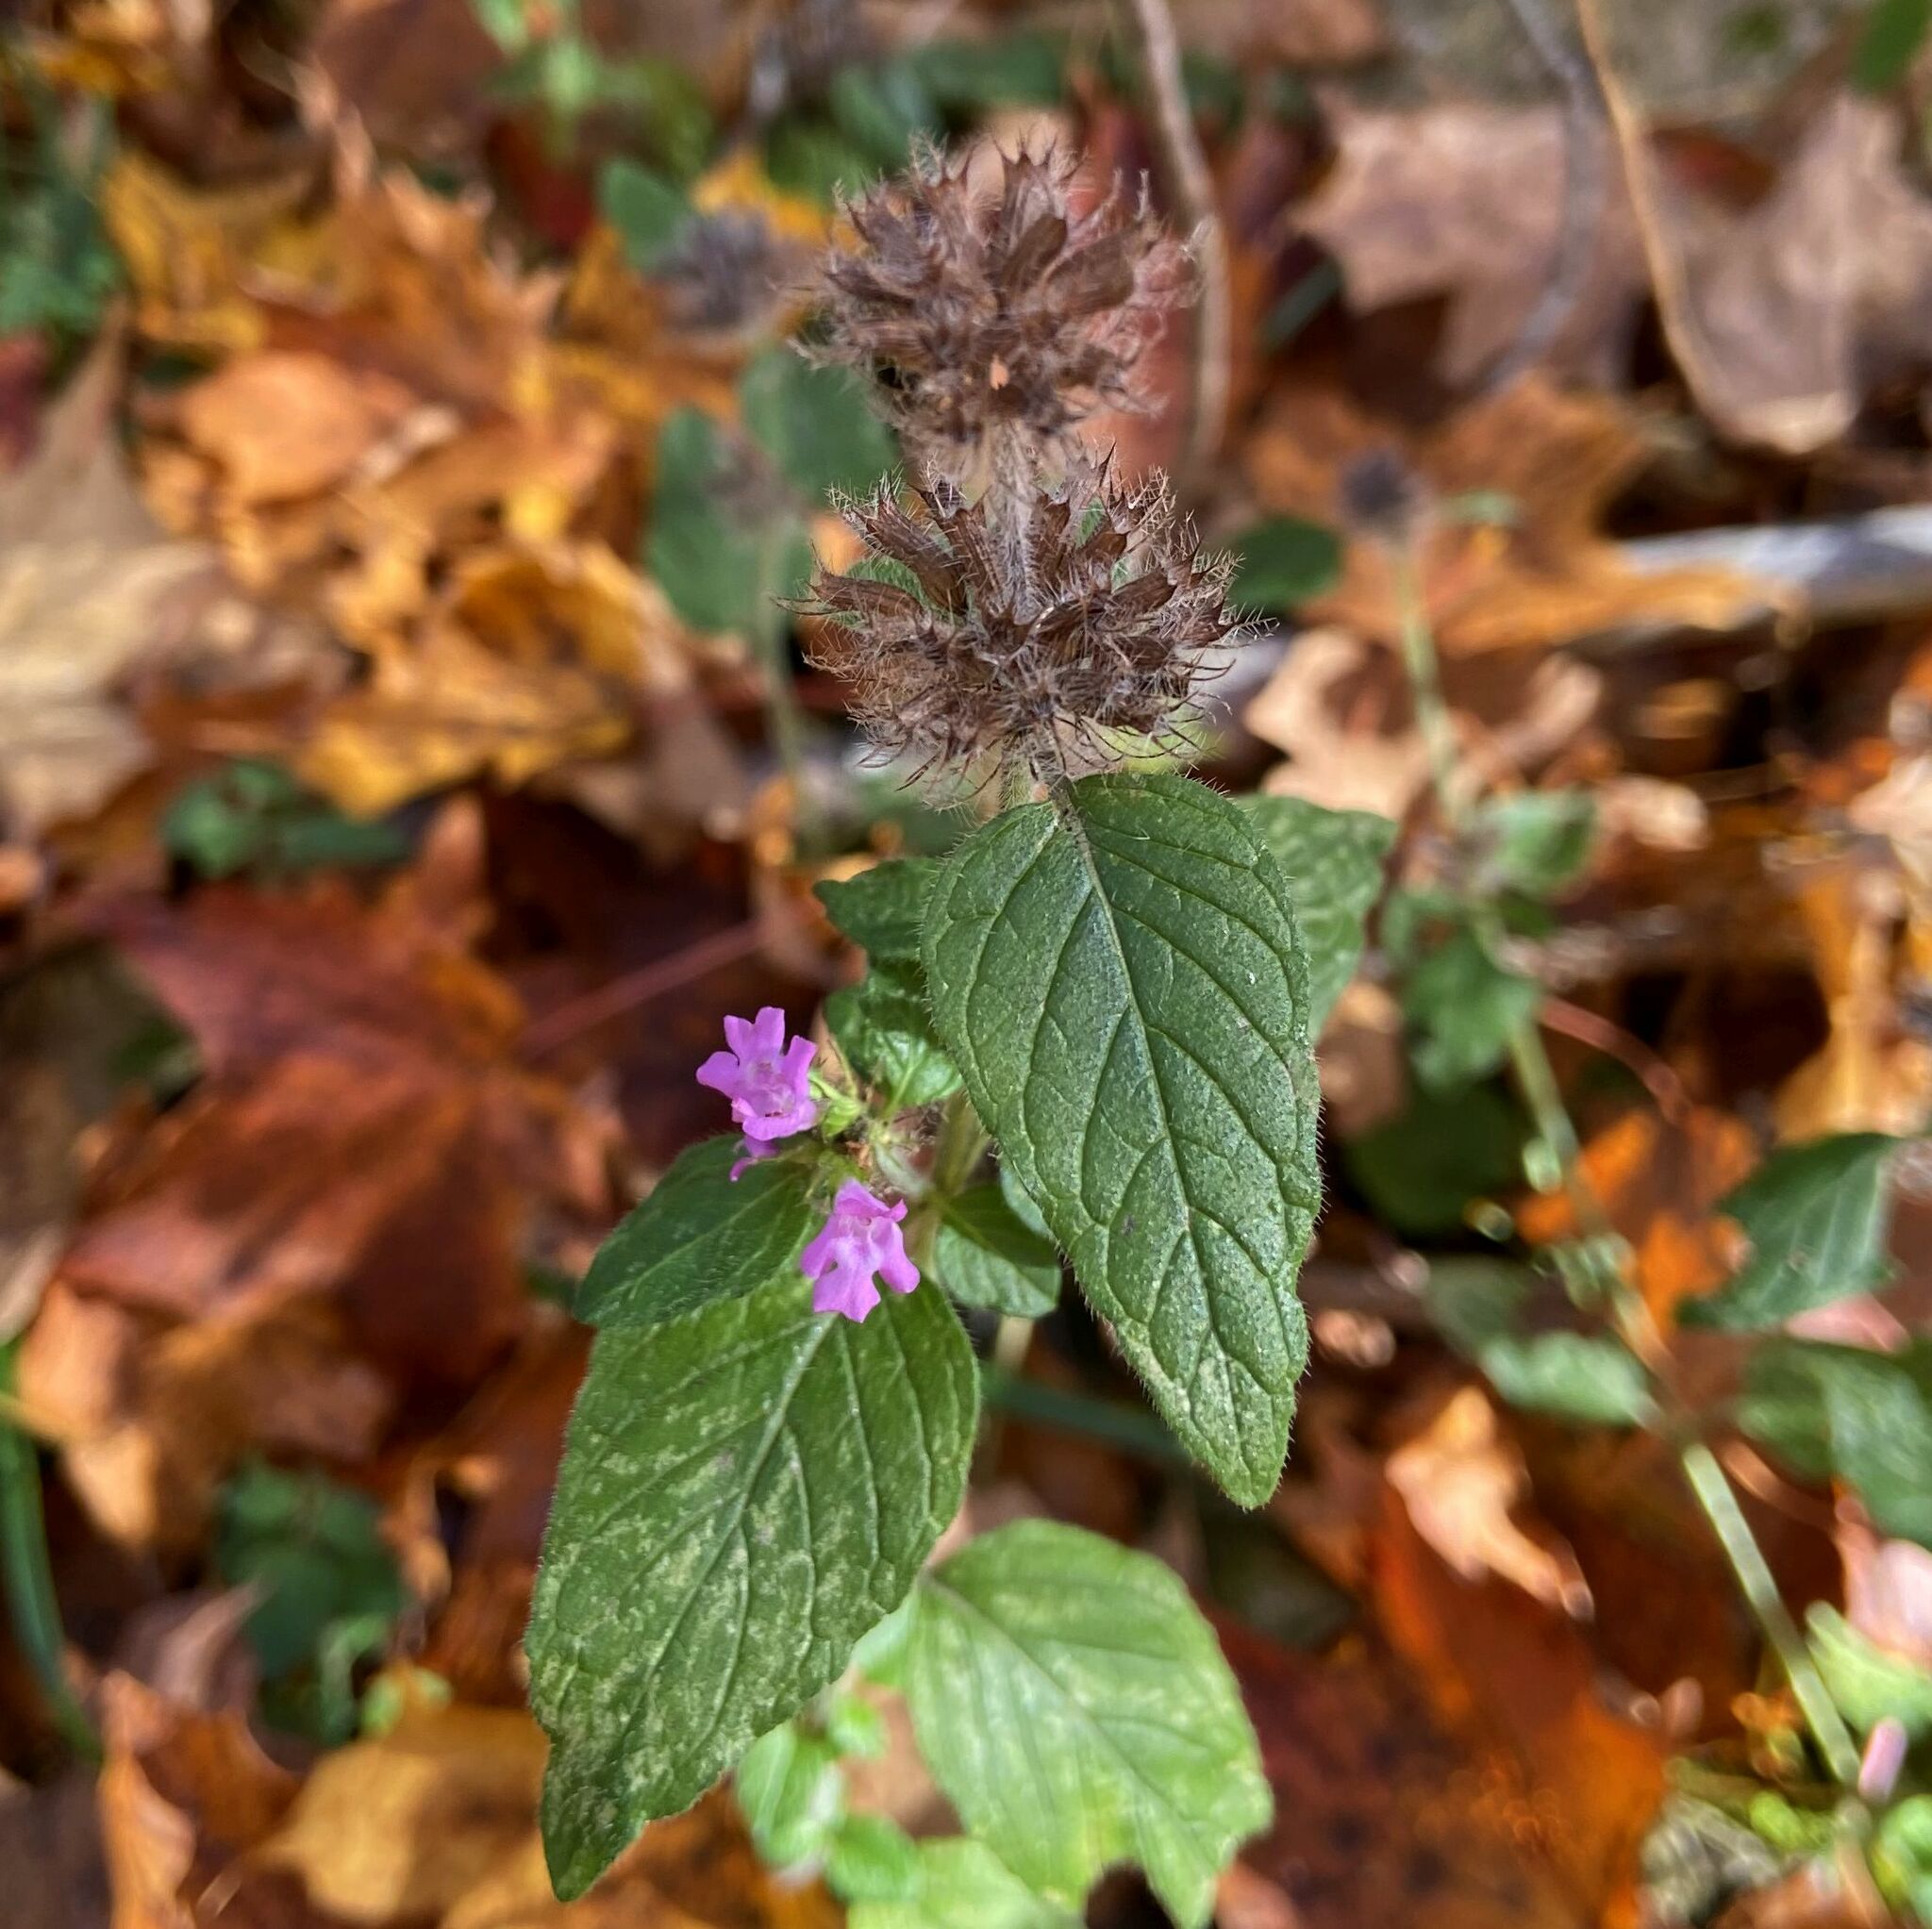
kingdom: Plantae
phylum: Tracheophyta
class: Magnoliopsida
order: Lamiales
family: Lamiaceae
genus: Clinopodium
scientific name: Clinopodium vulgare
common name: Wild basil
